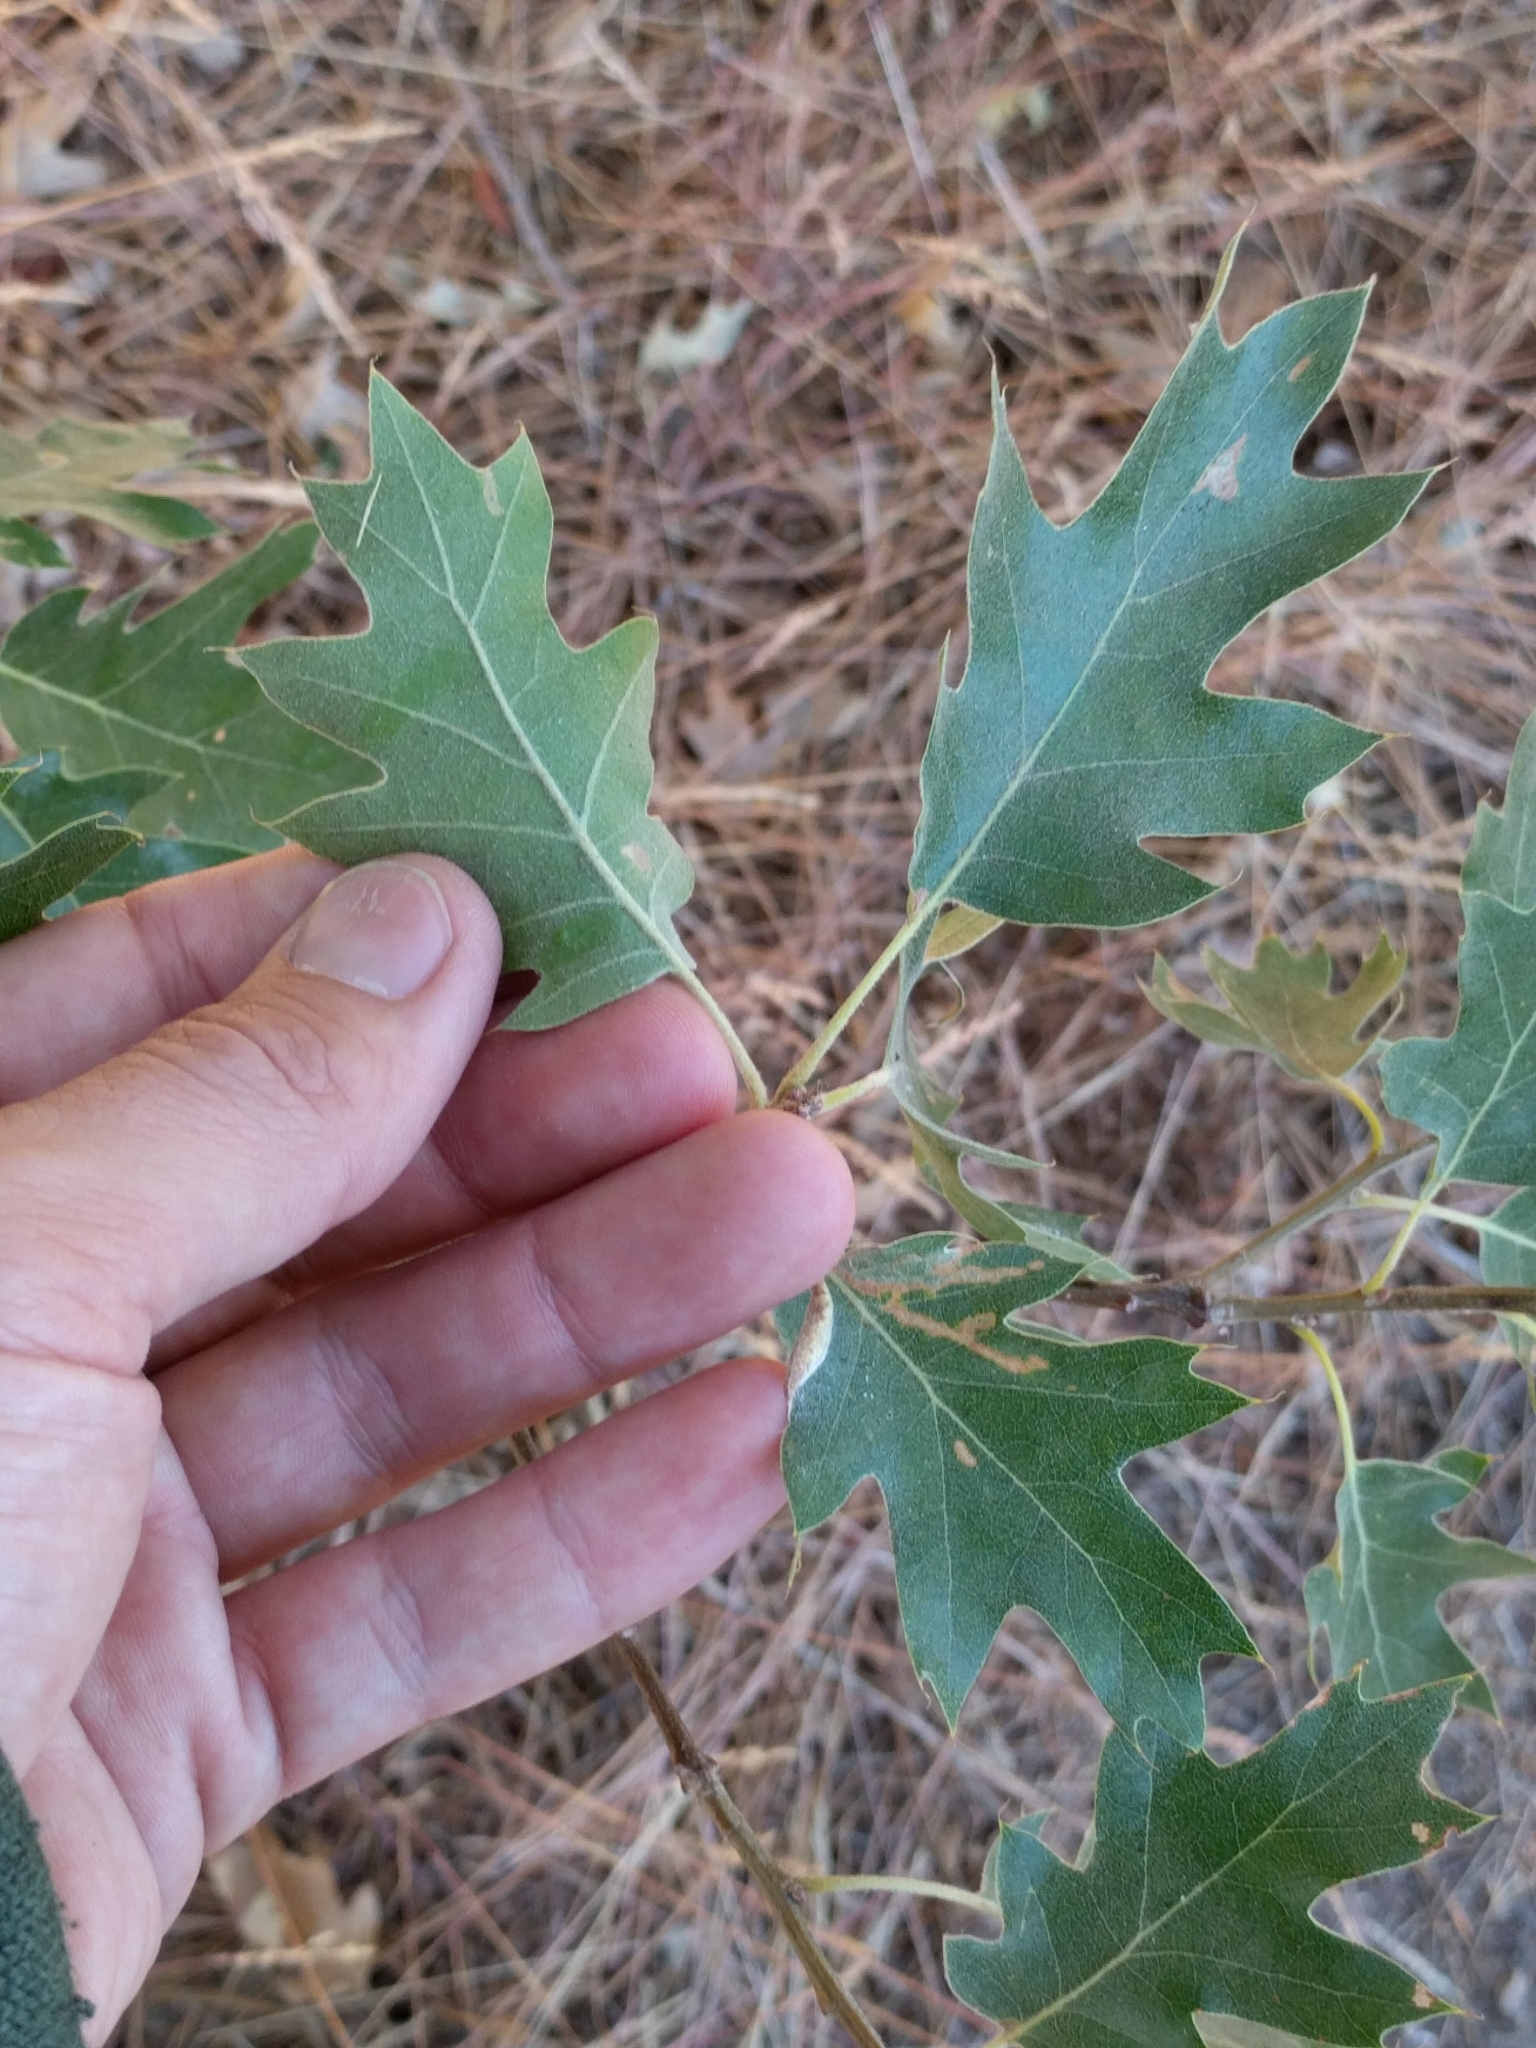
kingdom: Plantae
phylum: Tracheophyta
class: Magnoliopsida
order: Fagales
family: Fagaceae
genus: Quercus
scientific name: Quercus kelloggii
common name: California black oak
